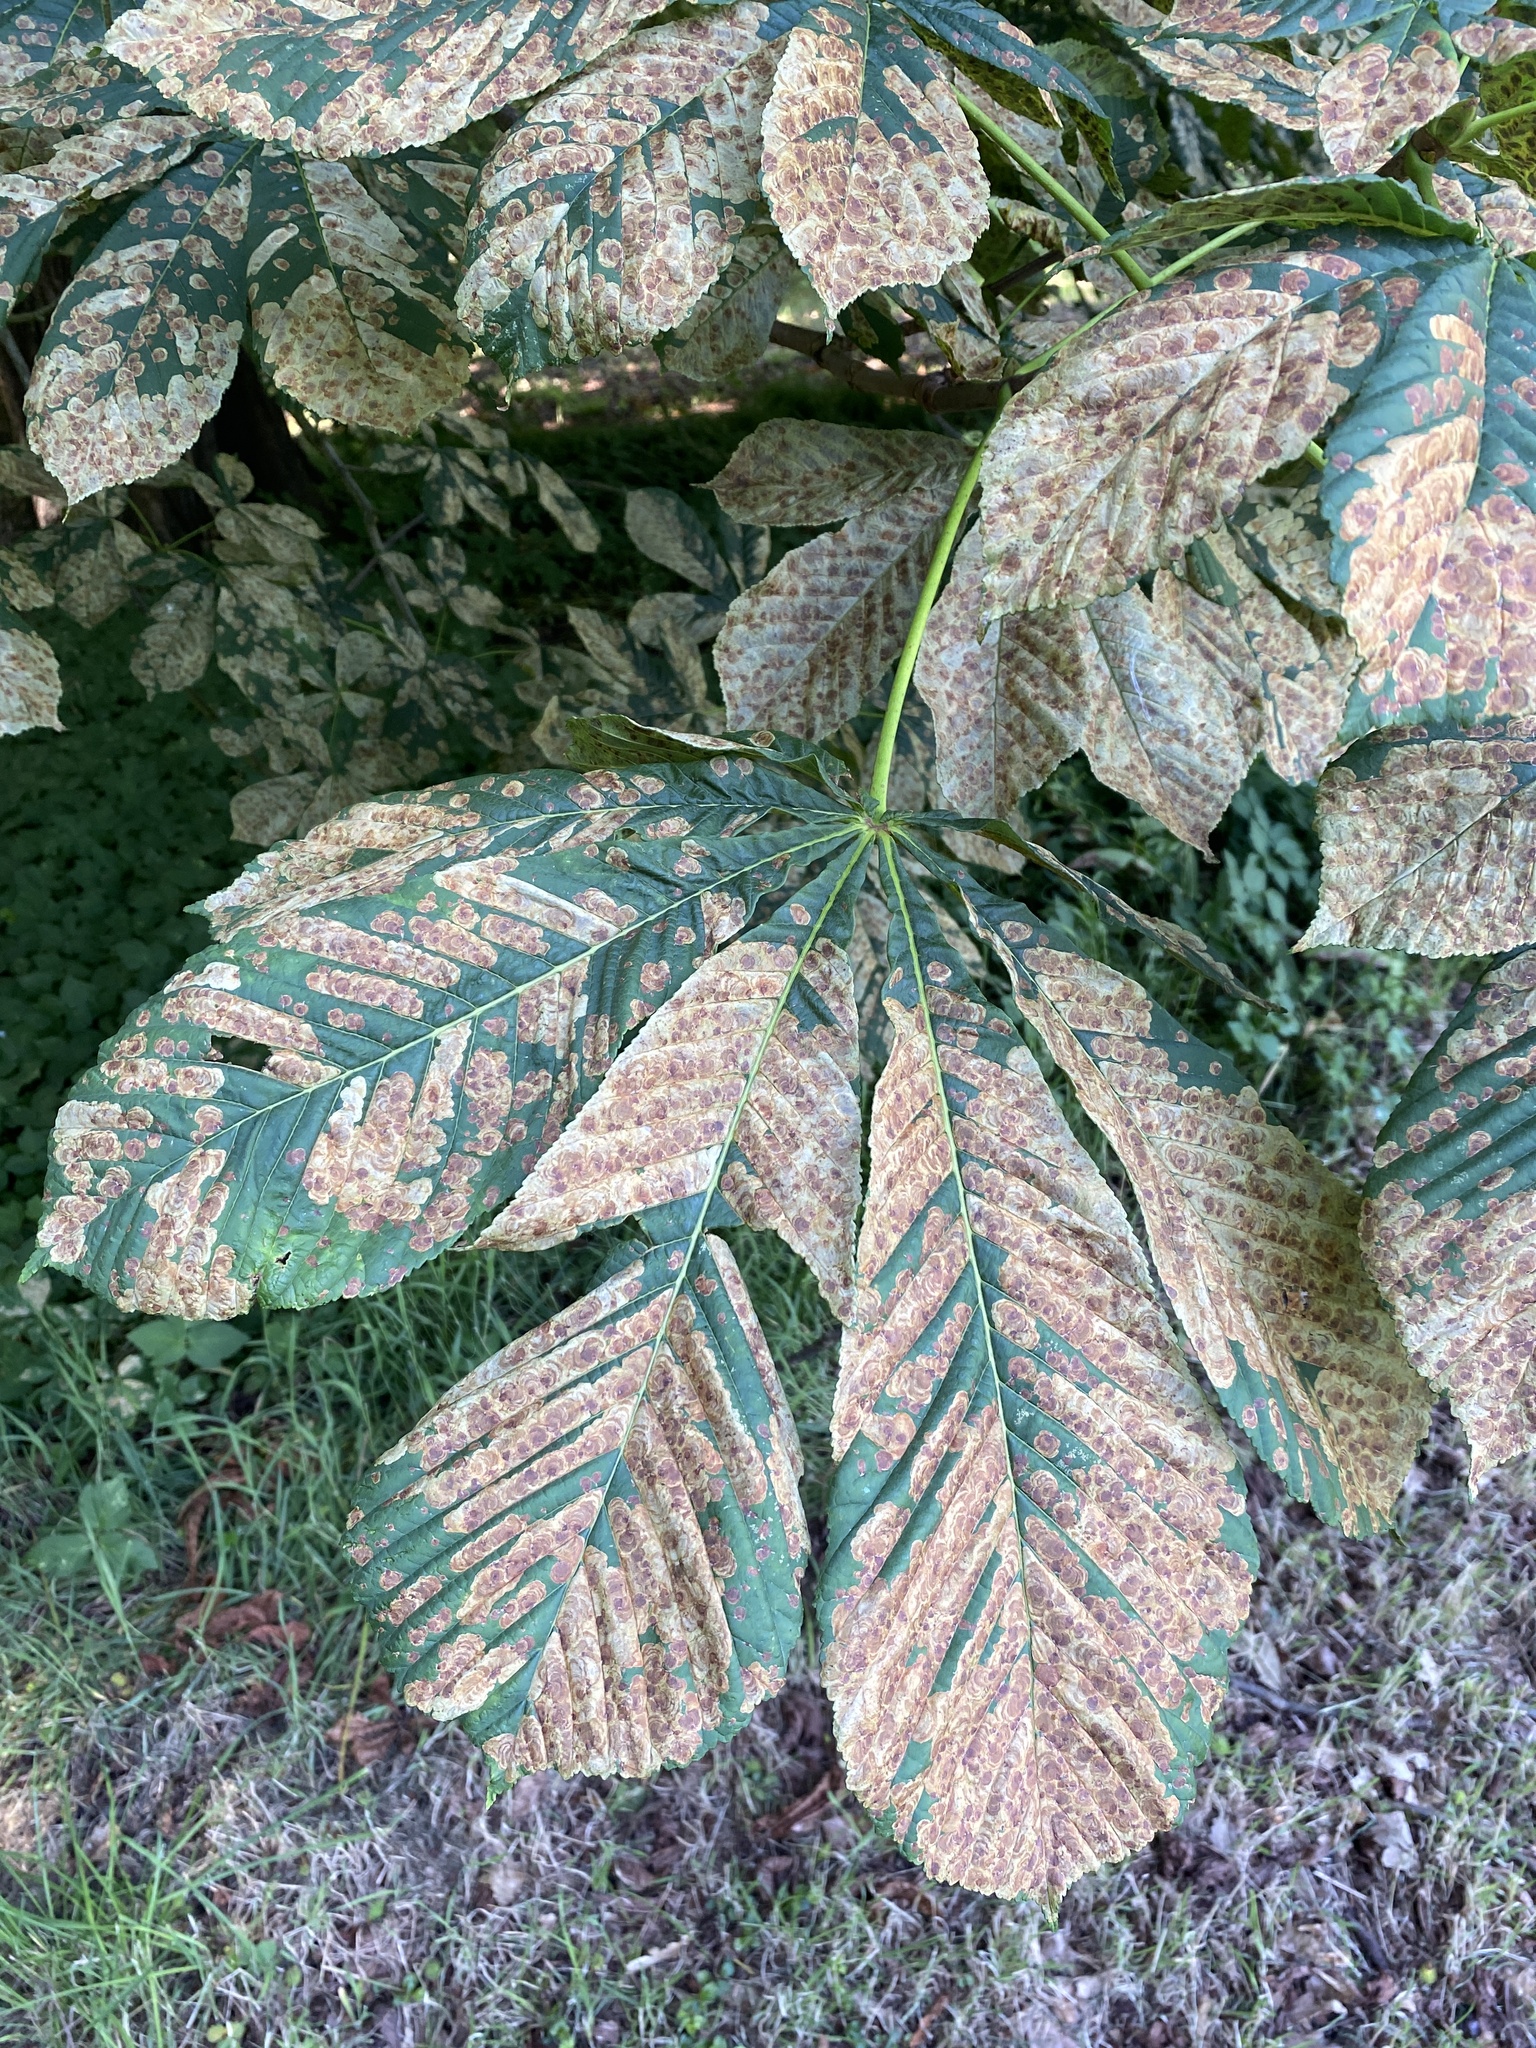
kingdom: Plantae
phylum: Tracheophyta
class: Magnoliopsida
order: Sapindales
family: Sapindaceae
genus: Aesculus
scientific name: Aesculus hippocastanum
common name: Horse-chestnut
